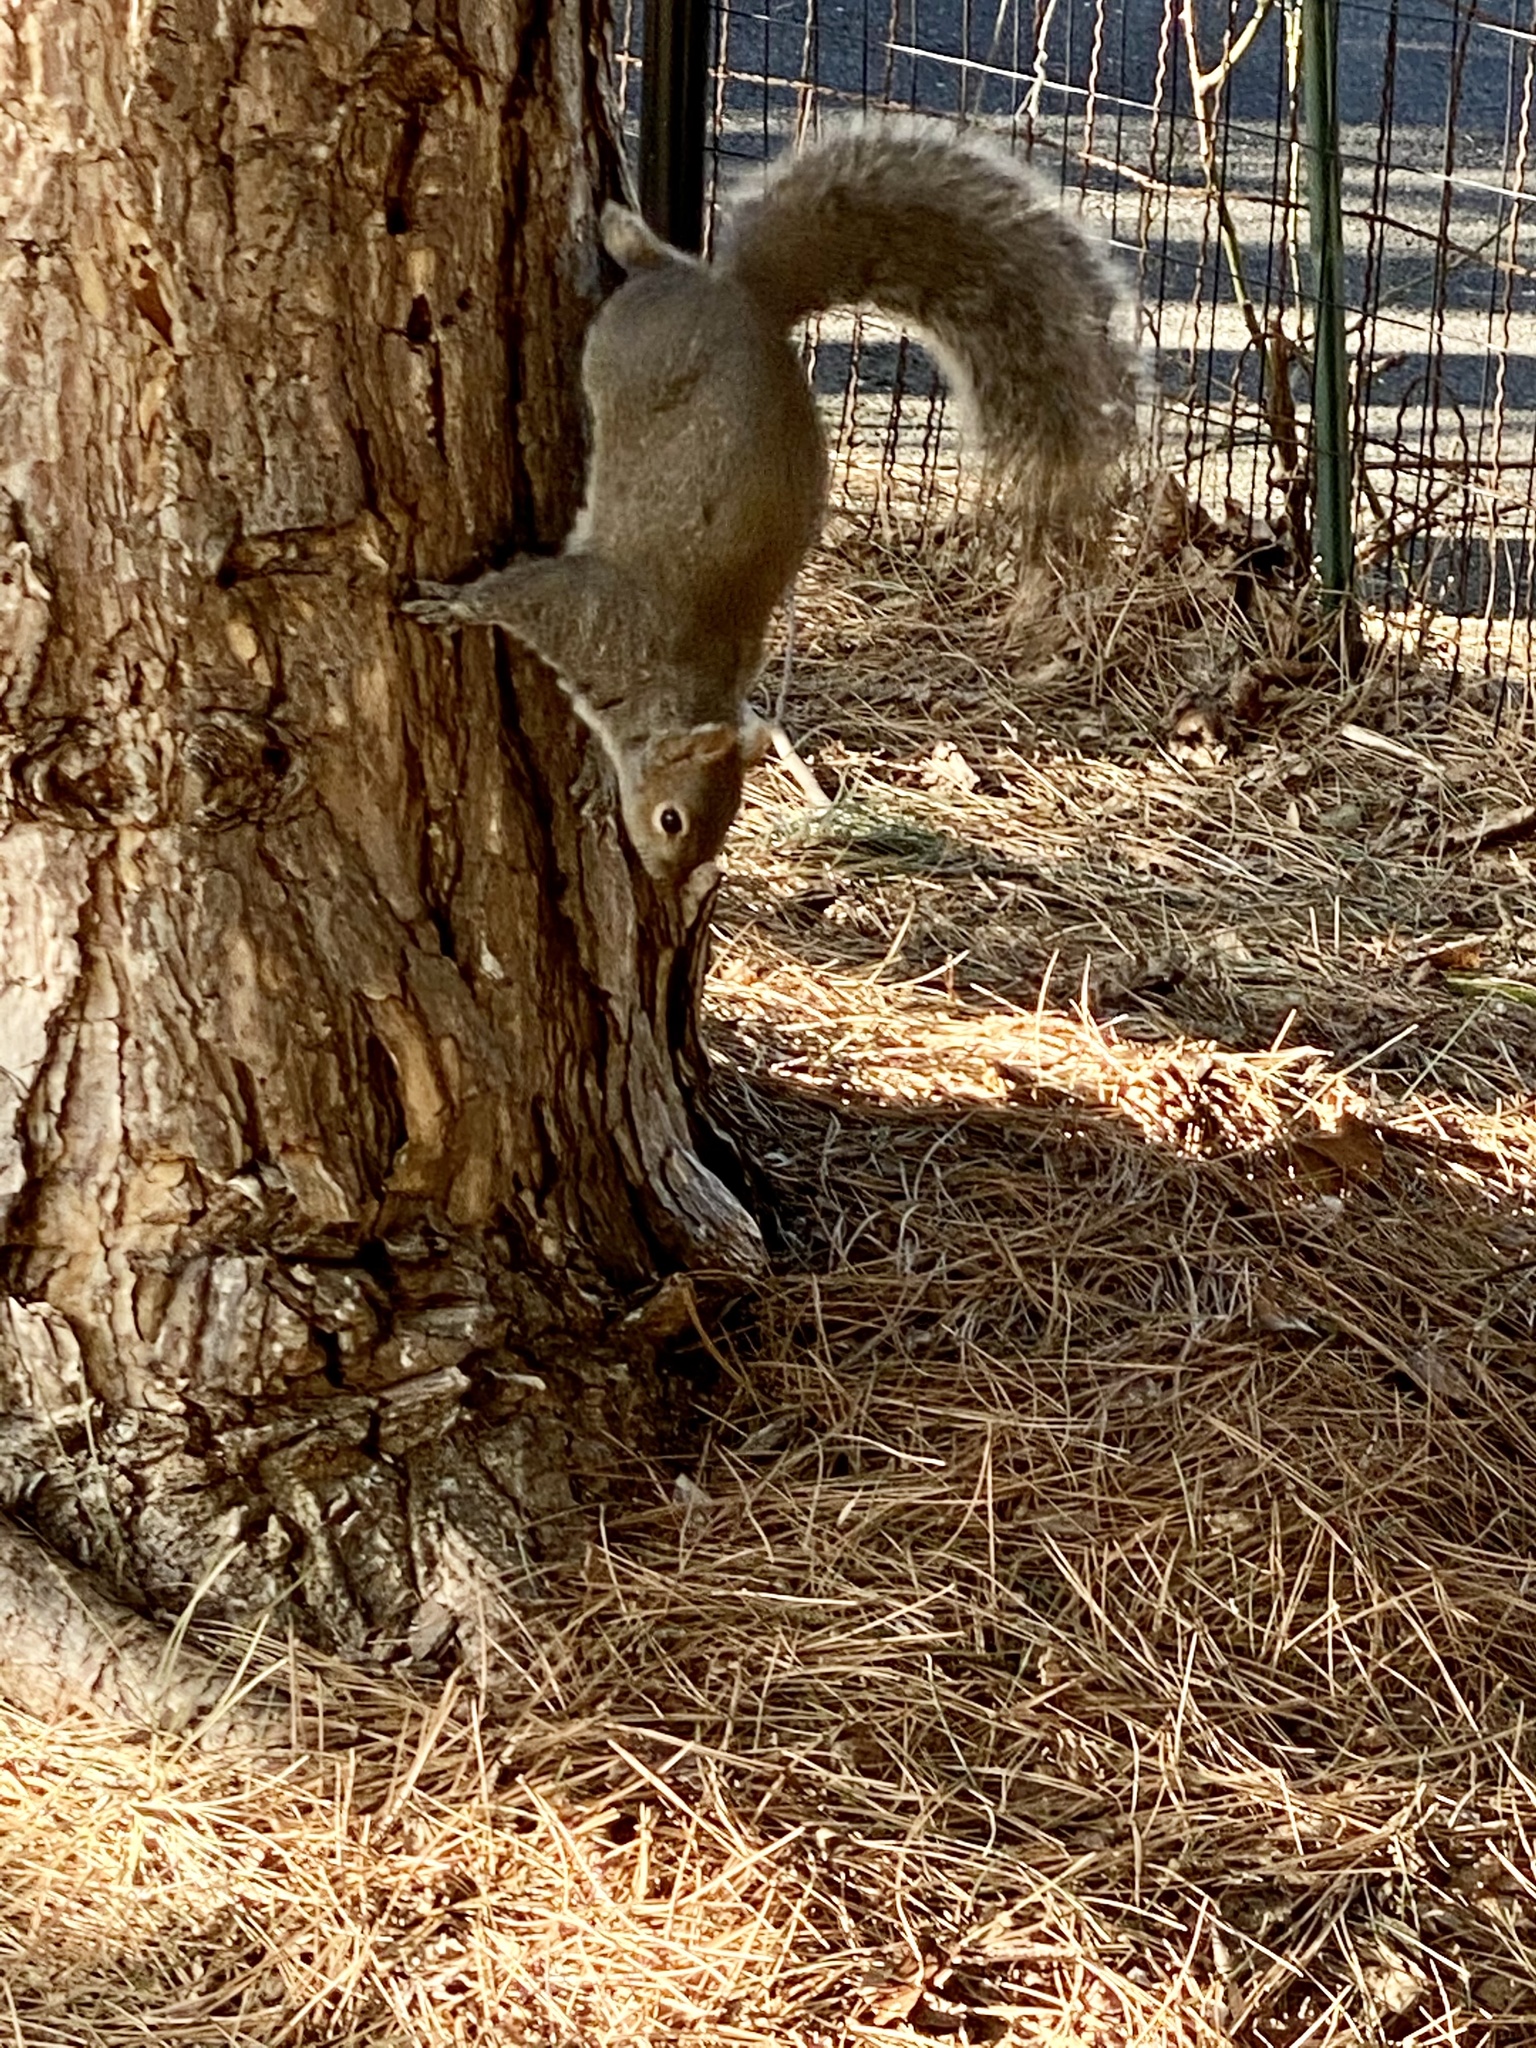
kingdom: Animalia
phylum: Chordata
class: Mammalia
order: Rodentia
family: Sciuridae
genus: Sciurus
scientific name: Sciurus carolinensis
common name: Eastern gray squirrel
